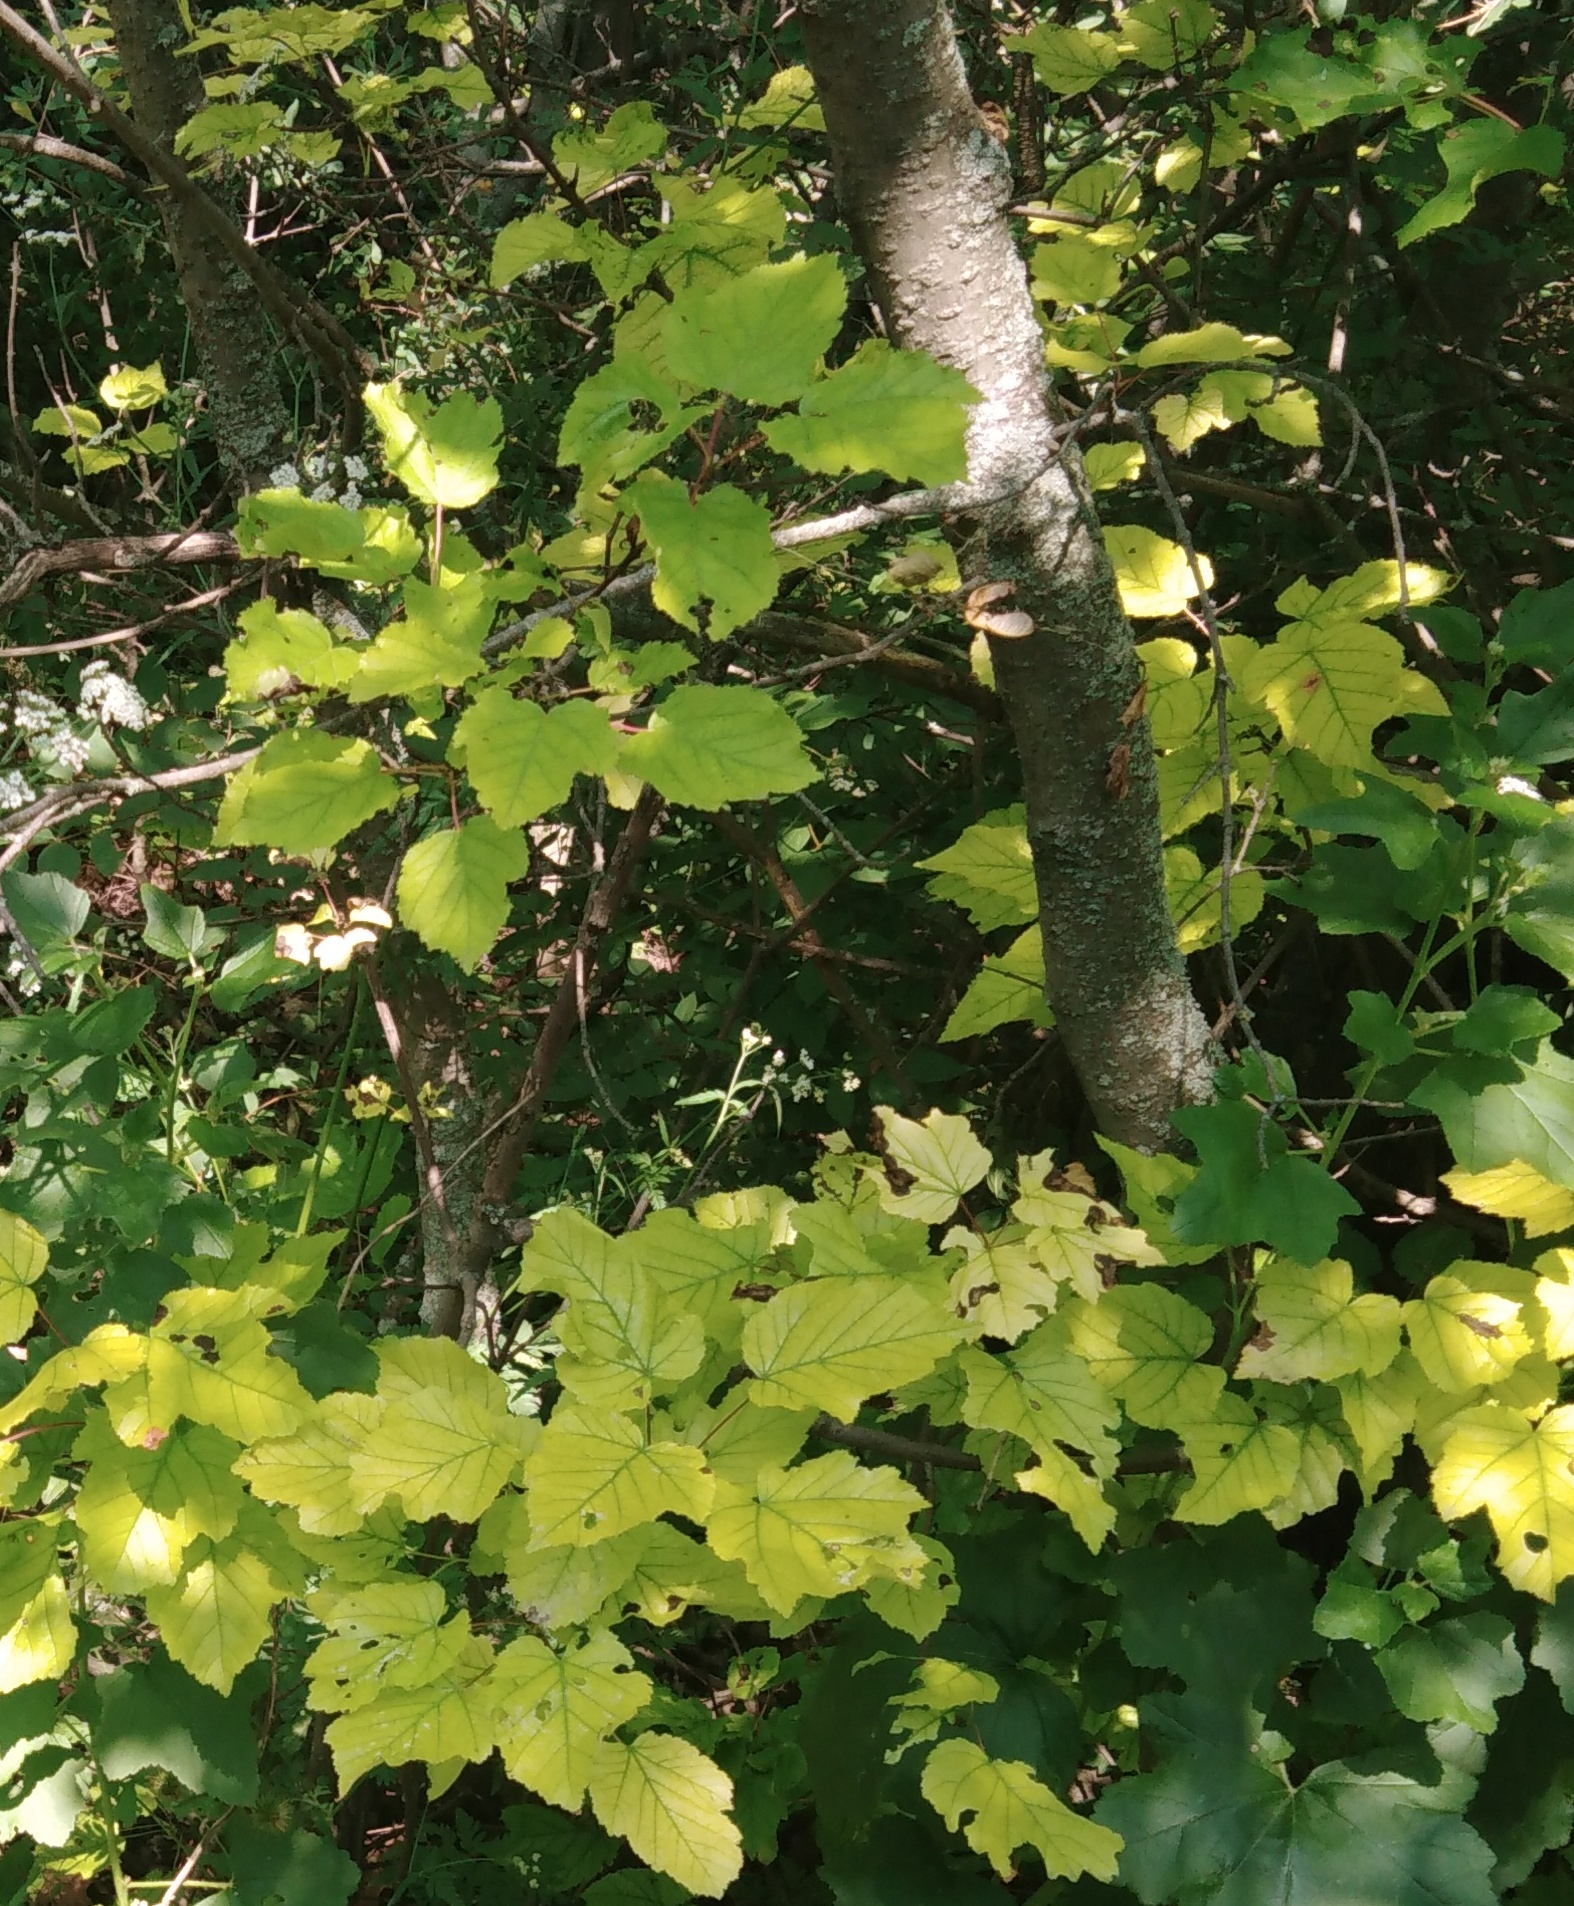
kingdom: Plantae
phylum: Tracheophyta
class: Magnoliopsida
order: Sapindales
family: Sapindaceae
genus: Acer
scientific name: Acer tataricum
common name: Tartar maple
